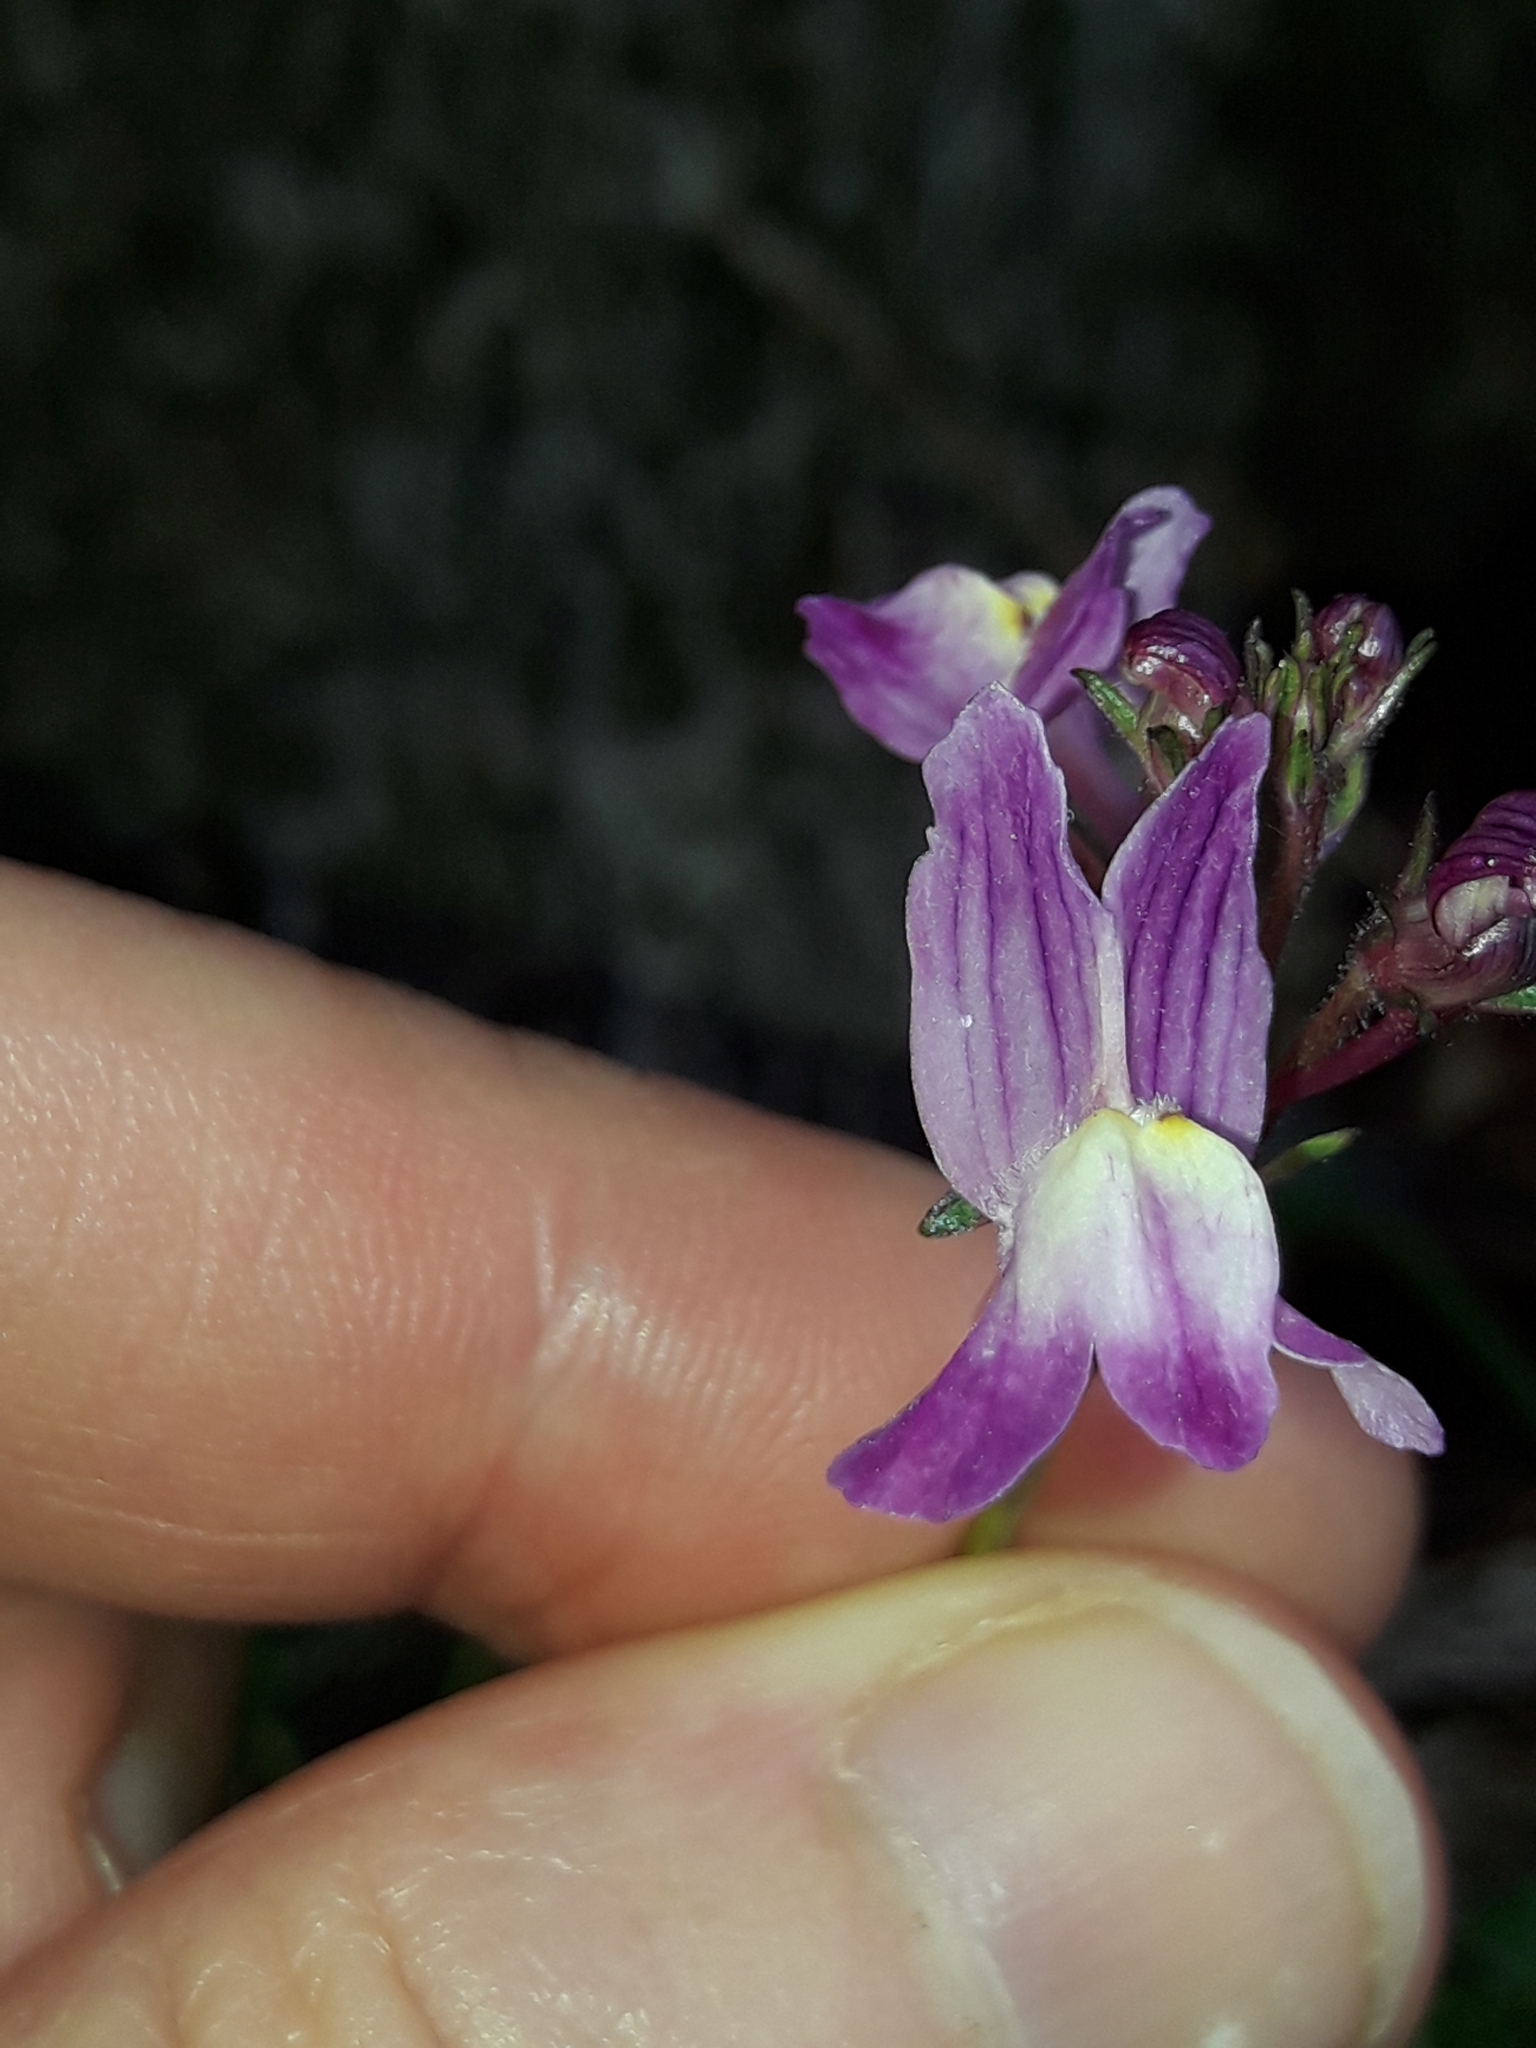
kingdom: Plantae
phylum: Tracheophyta
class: Magnoliopsida
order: Lamiales
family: Plantaginaceae
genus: Linaria
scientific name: Linaria maroccana
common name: Moroccan toadflax
